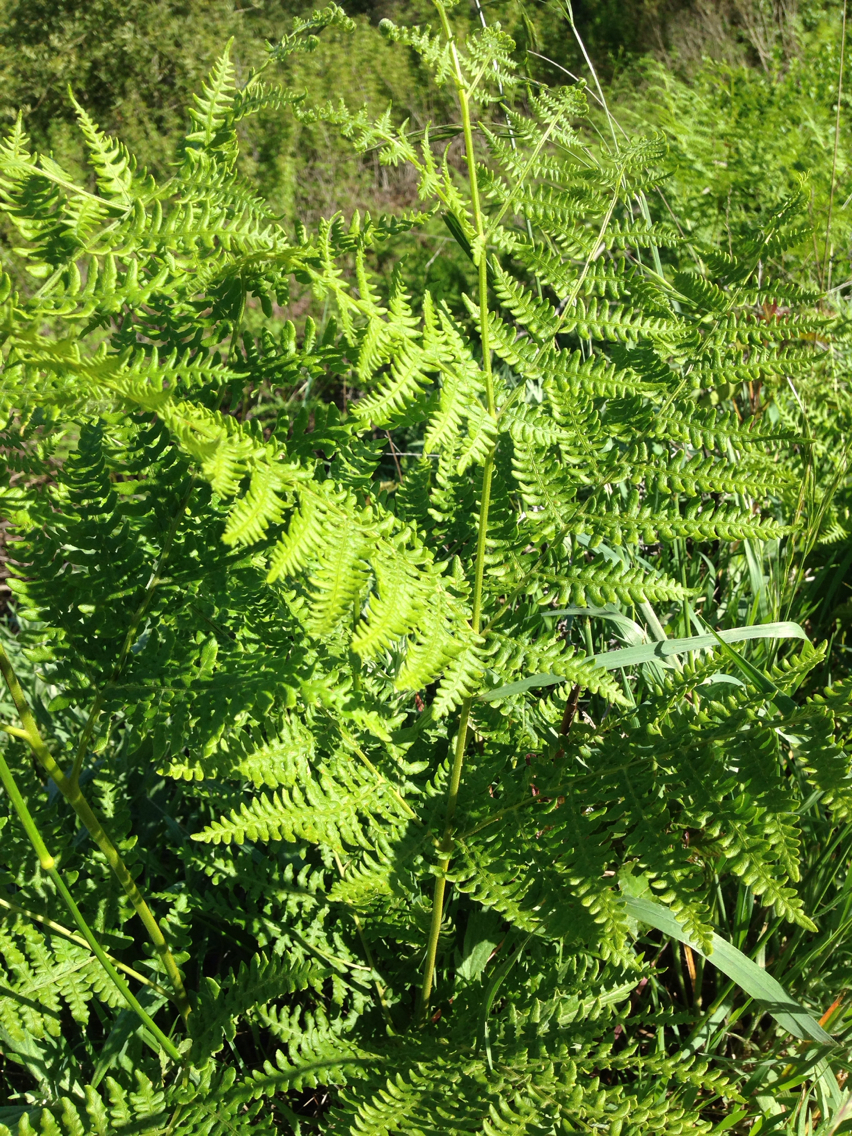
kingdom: Plantae
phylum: Tracheophyta
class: Polypodiopsida
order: Polypodiales
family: Dennstaedtiaceae
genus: Pteridium
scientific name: Pteridium aquilinum
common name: Bracken
